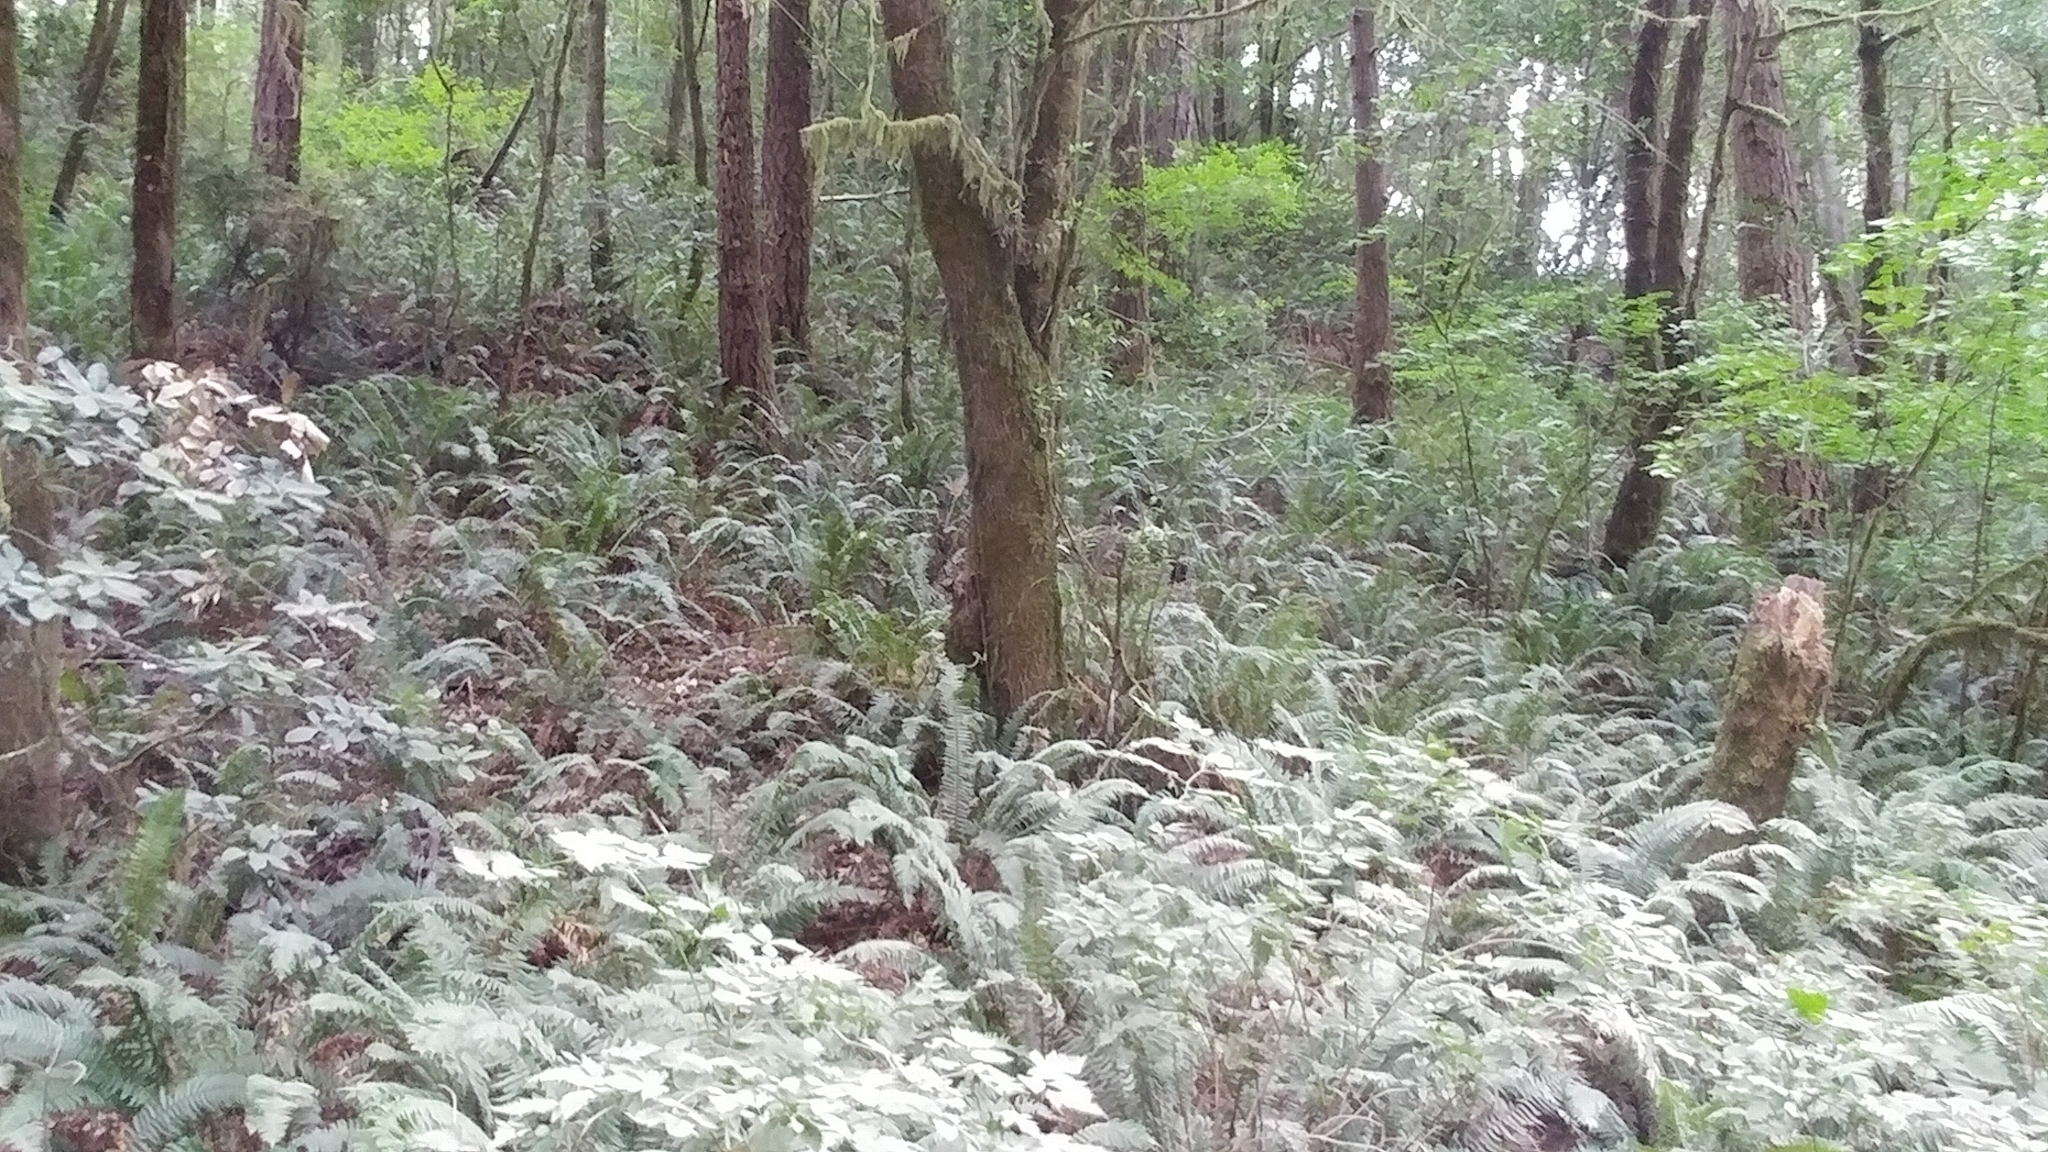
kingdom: Plantae
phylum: Tracheophyta
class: Polypodiopsida
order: Polypodiales
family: Dryopteridaceae
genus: Polystichum
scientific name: Polystichum munitum
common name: Western sword-fern
